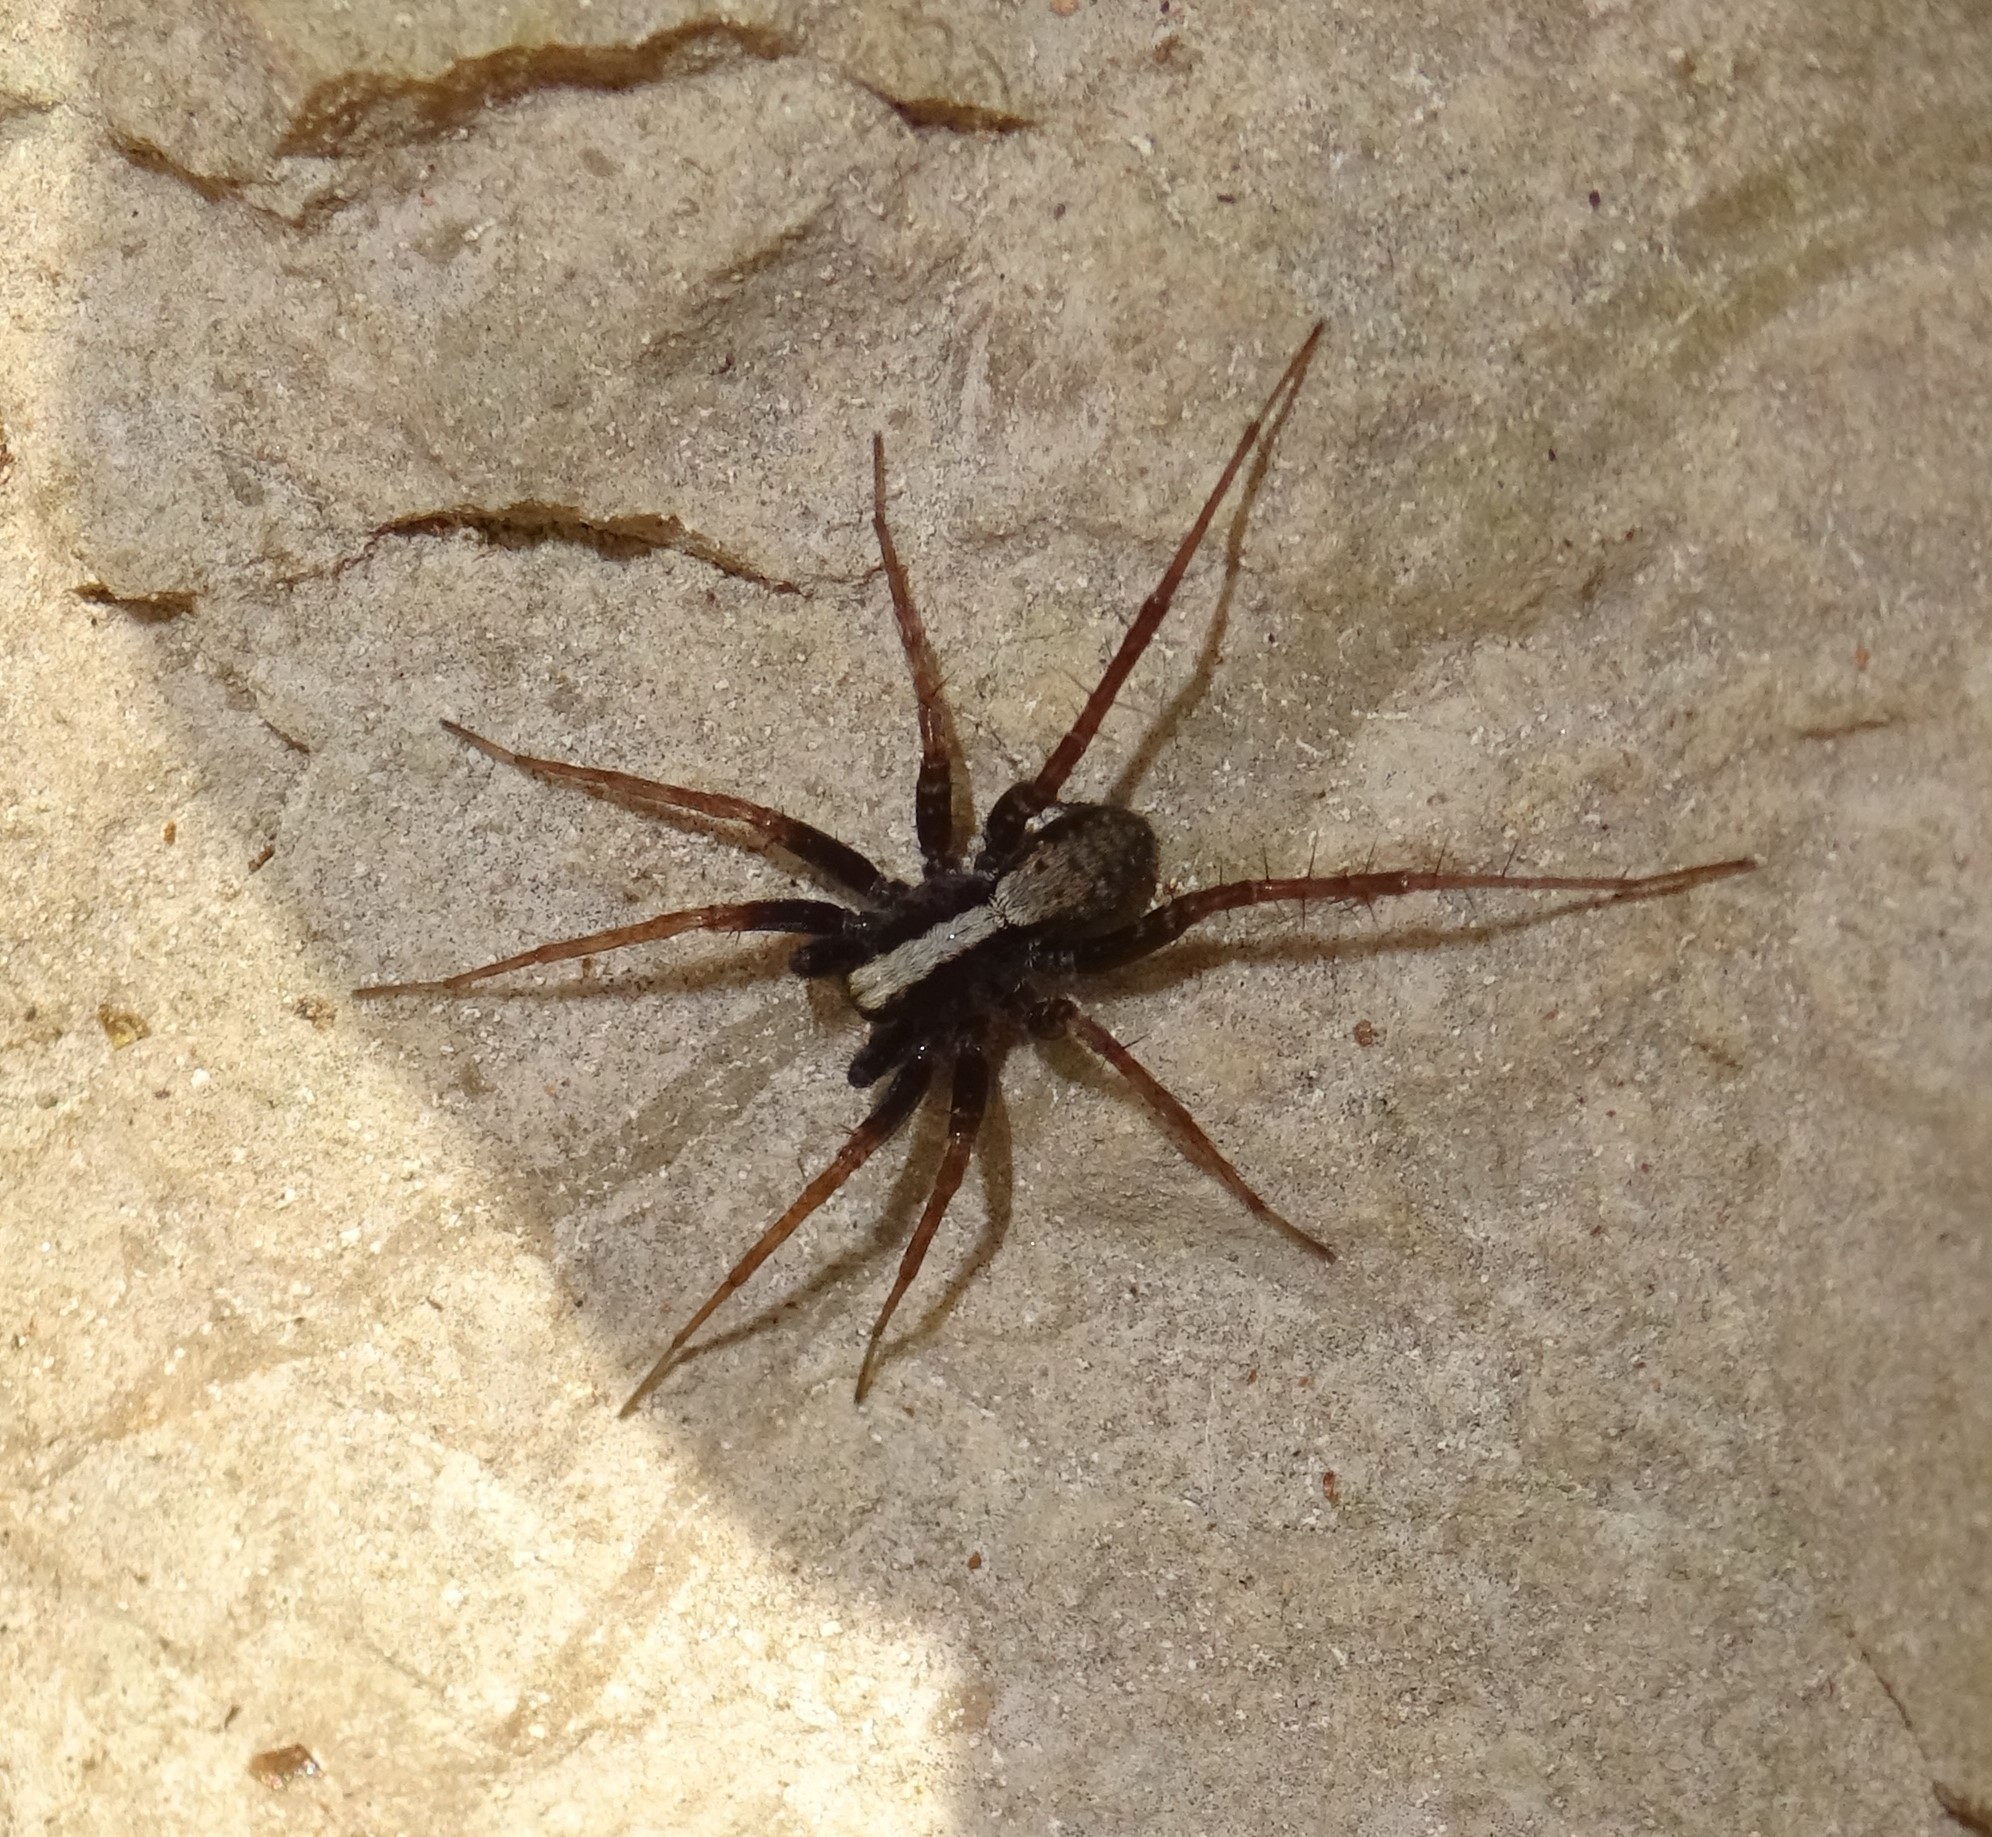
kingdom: Animalia
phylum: Arthropoda
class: Arachnida
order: Araneae
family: Lycosidae
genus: Pardosa
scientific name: Pardosa
